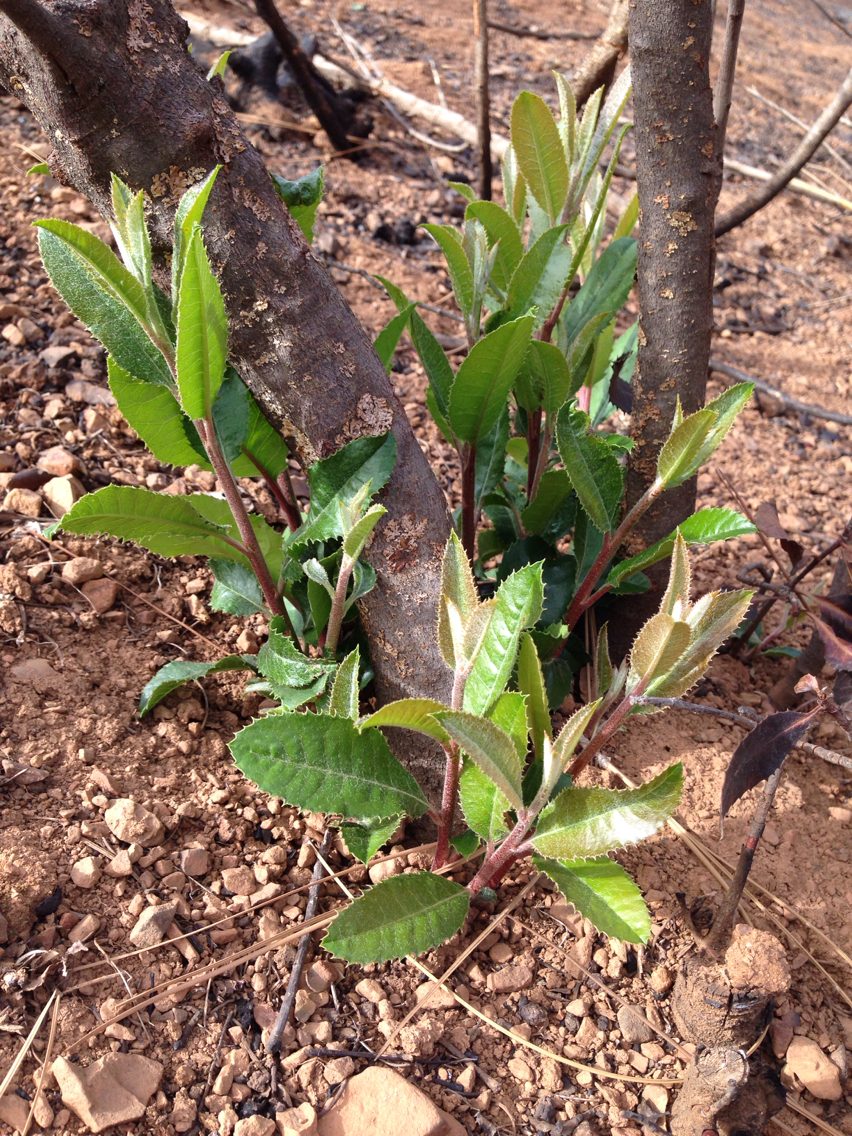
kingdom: Plantae
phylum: Tracheophyta
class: Magnoliopsida
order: Rosales
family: Rosaceae
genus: Heteromeles
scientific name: Heteromeles arbutifolia
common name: California-holly
